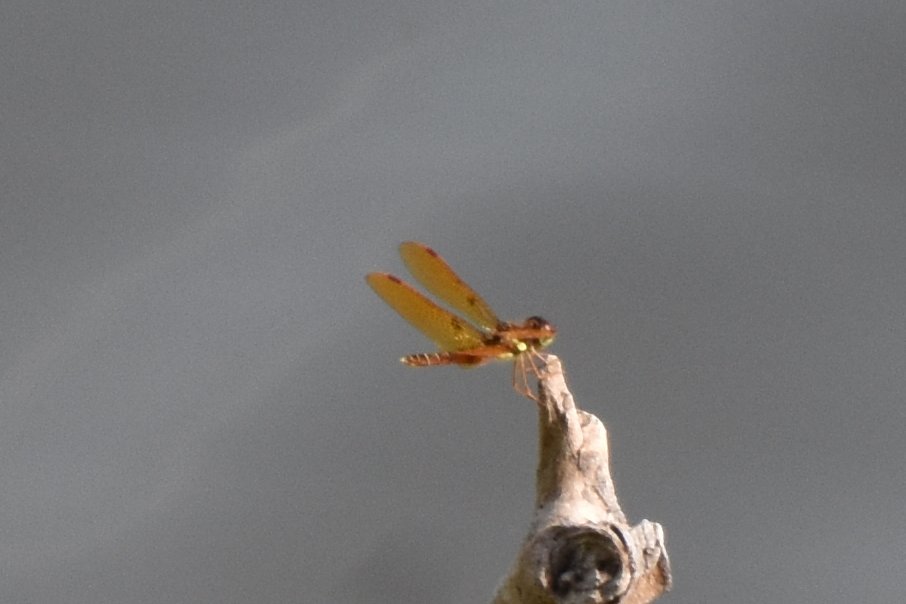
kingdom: Animalia
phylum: Arthropoda
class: Insecta
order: Odonata
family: Libellulidae
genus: Perithemis
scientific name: Perithemis tenera
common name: Eastern amberwing
